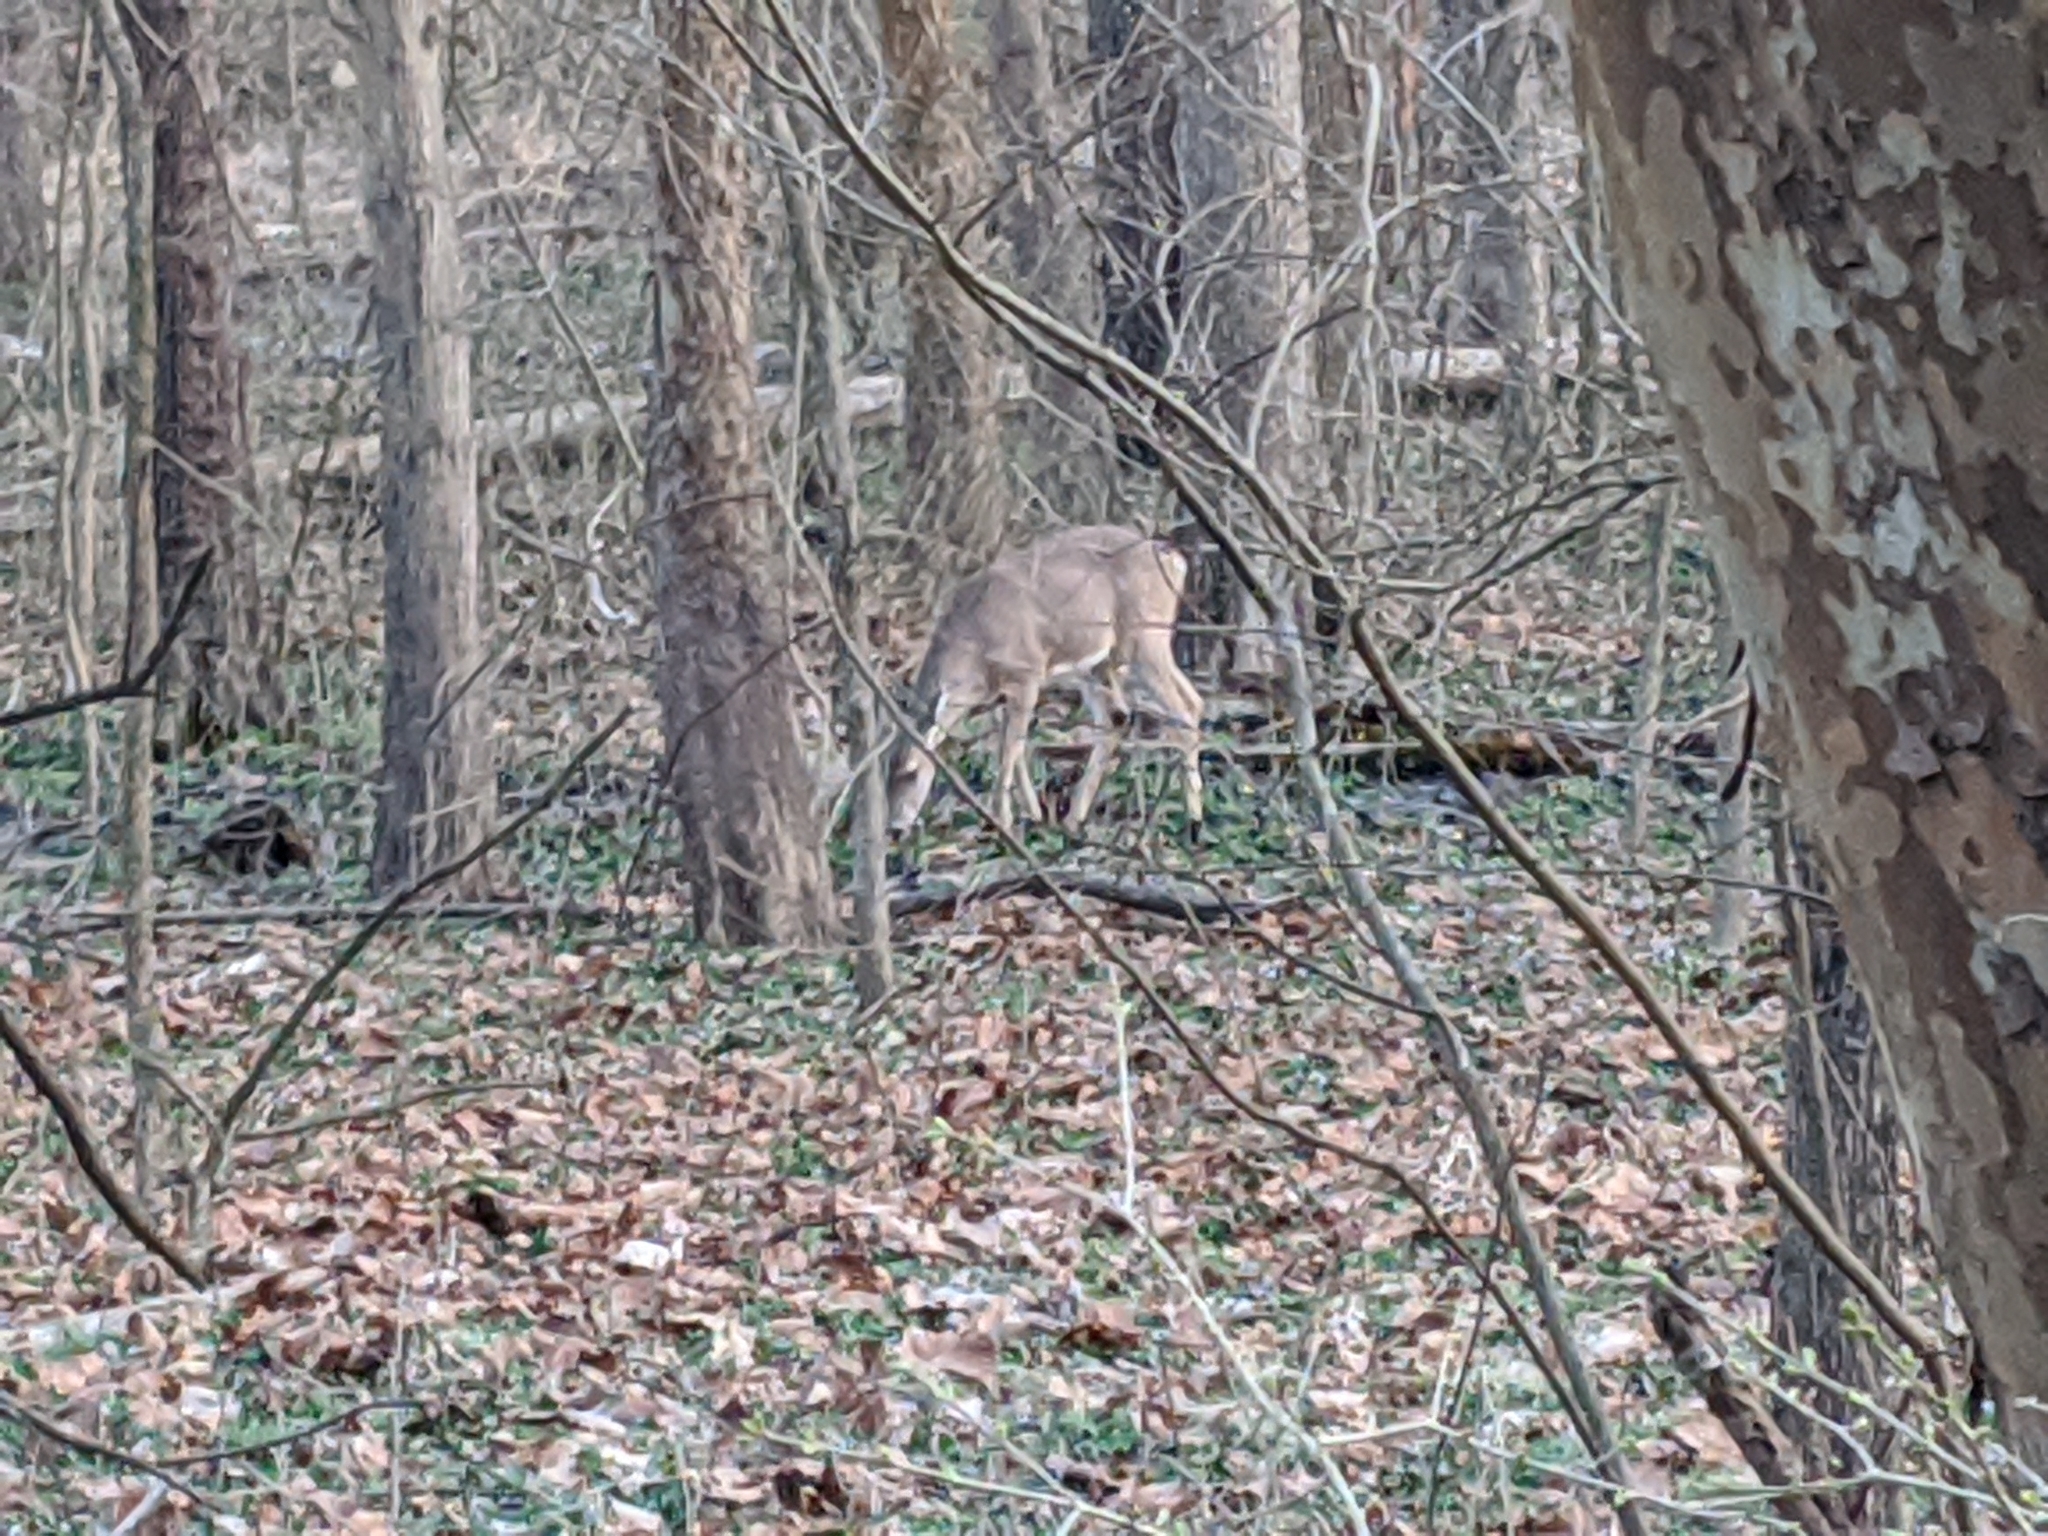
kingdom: Animalia
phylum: Chordata
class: Mammalia
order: Artiodactyla
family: Cervidae
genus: Odocoileus
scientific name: Odocoileus virginianus
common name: White-tailed deer
